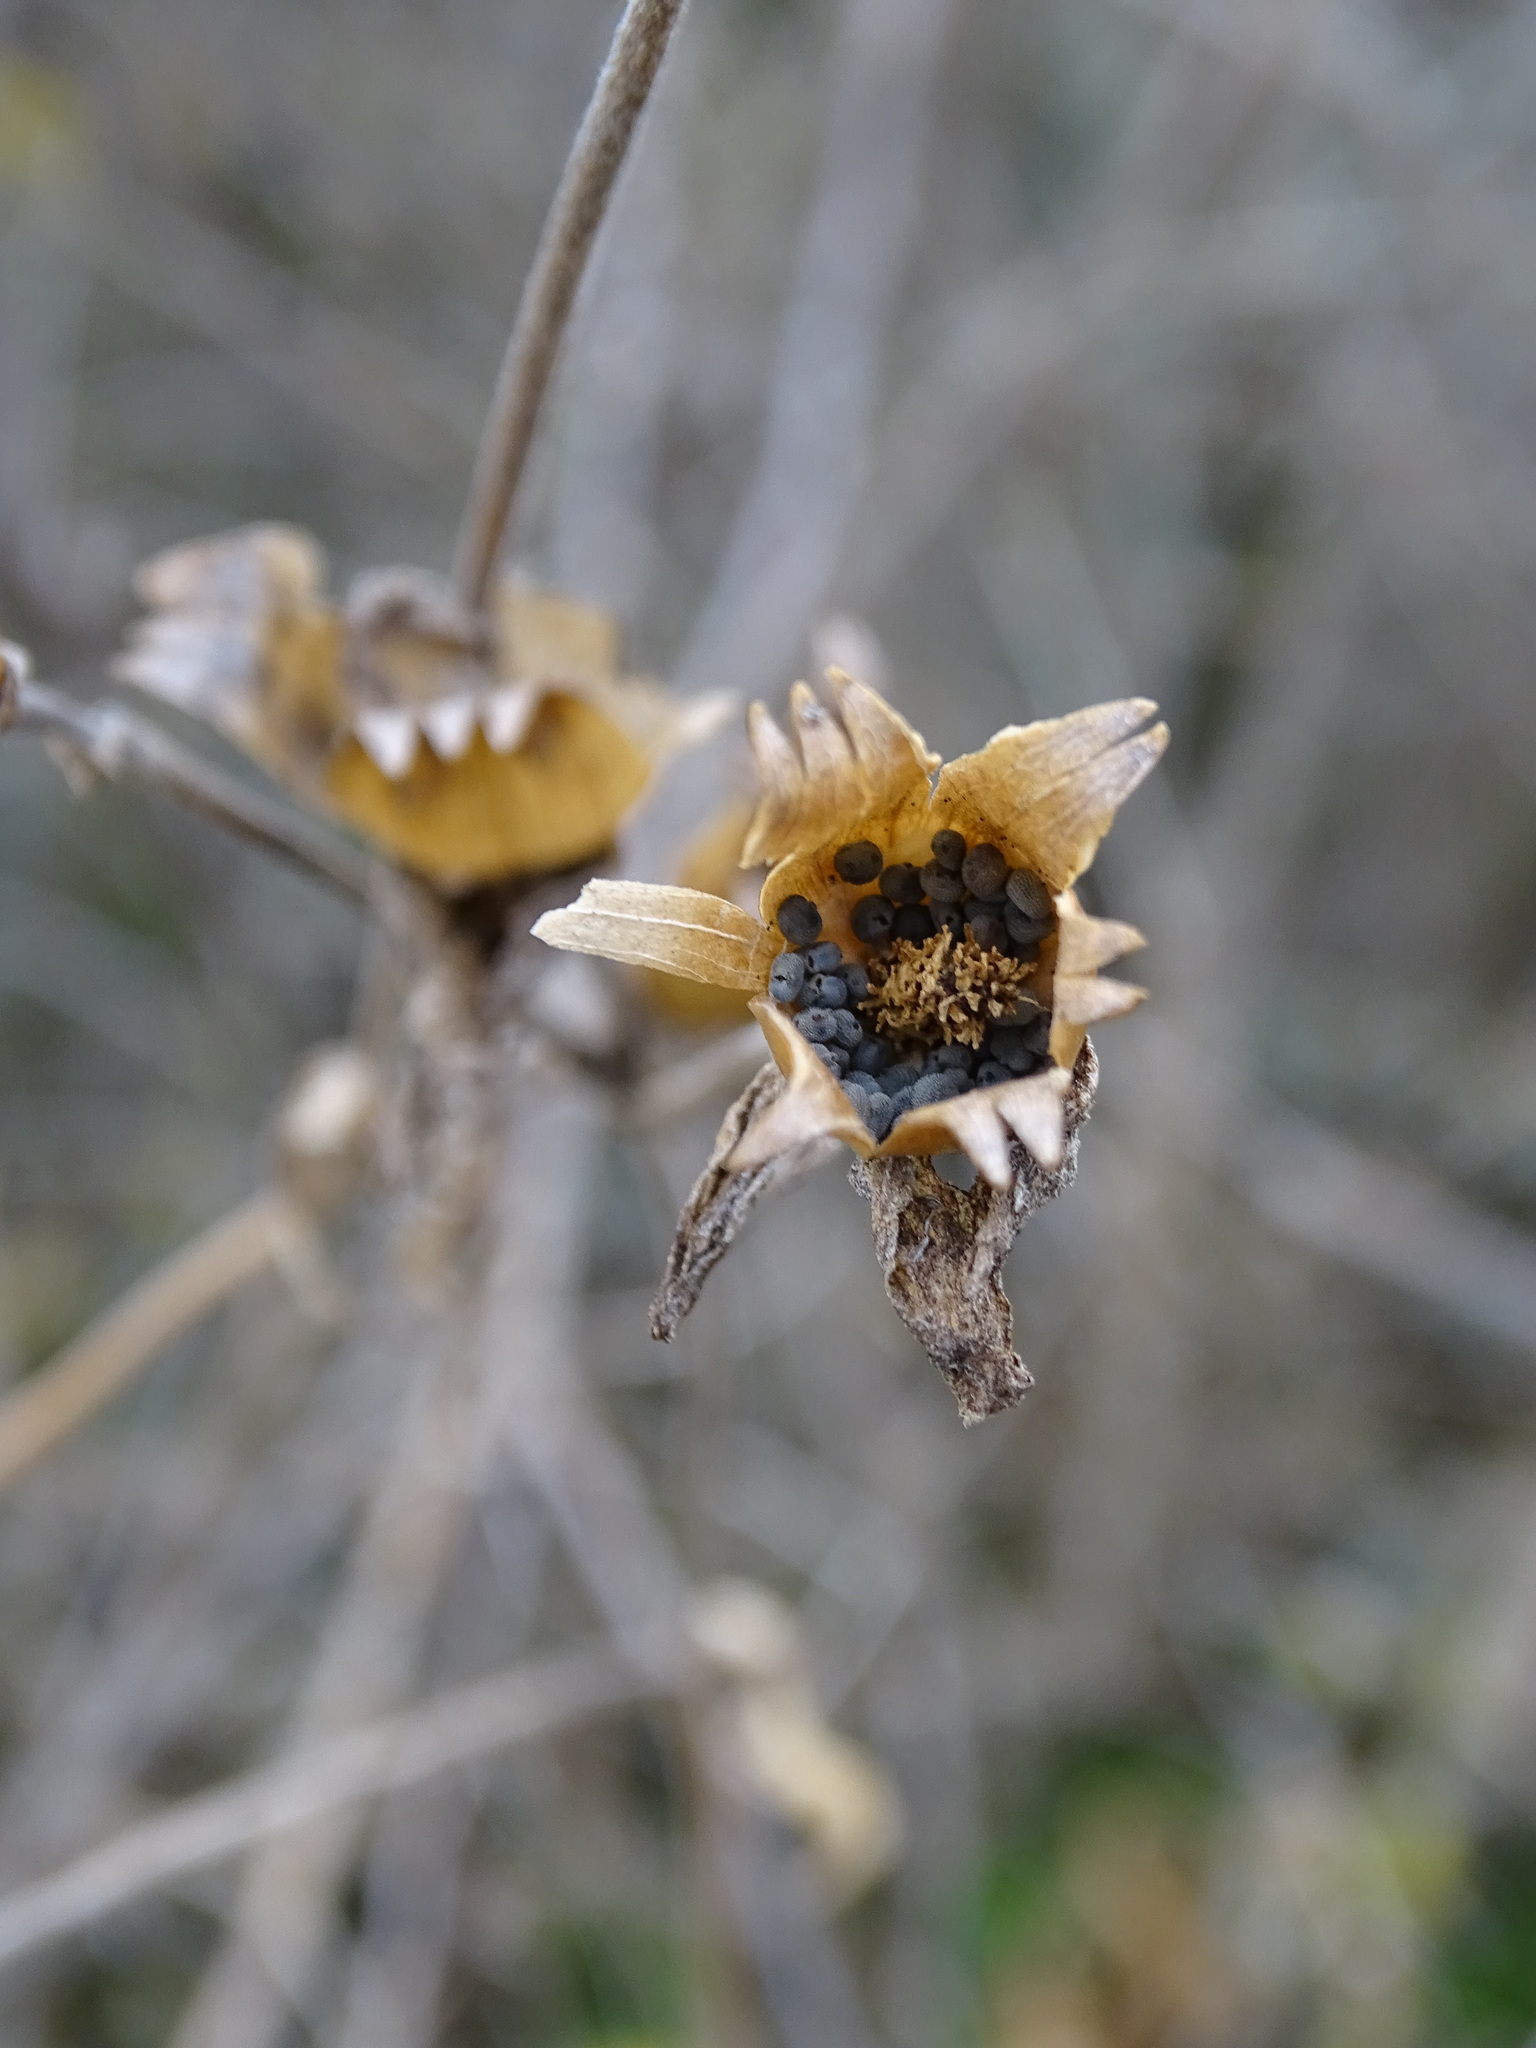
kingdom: Plantae
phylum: Tracheophyta
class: Magnoliopsida
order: Caryophyllales
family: Caryophyllaceae
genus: Silene
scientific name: Silene latifolia
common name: White campion
